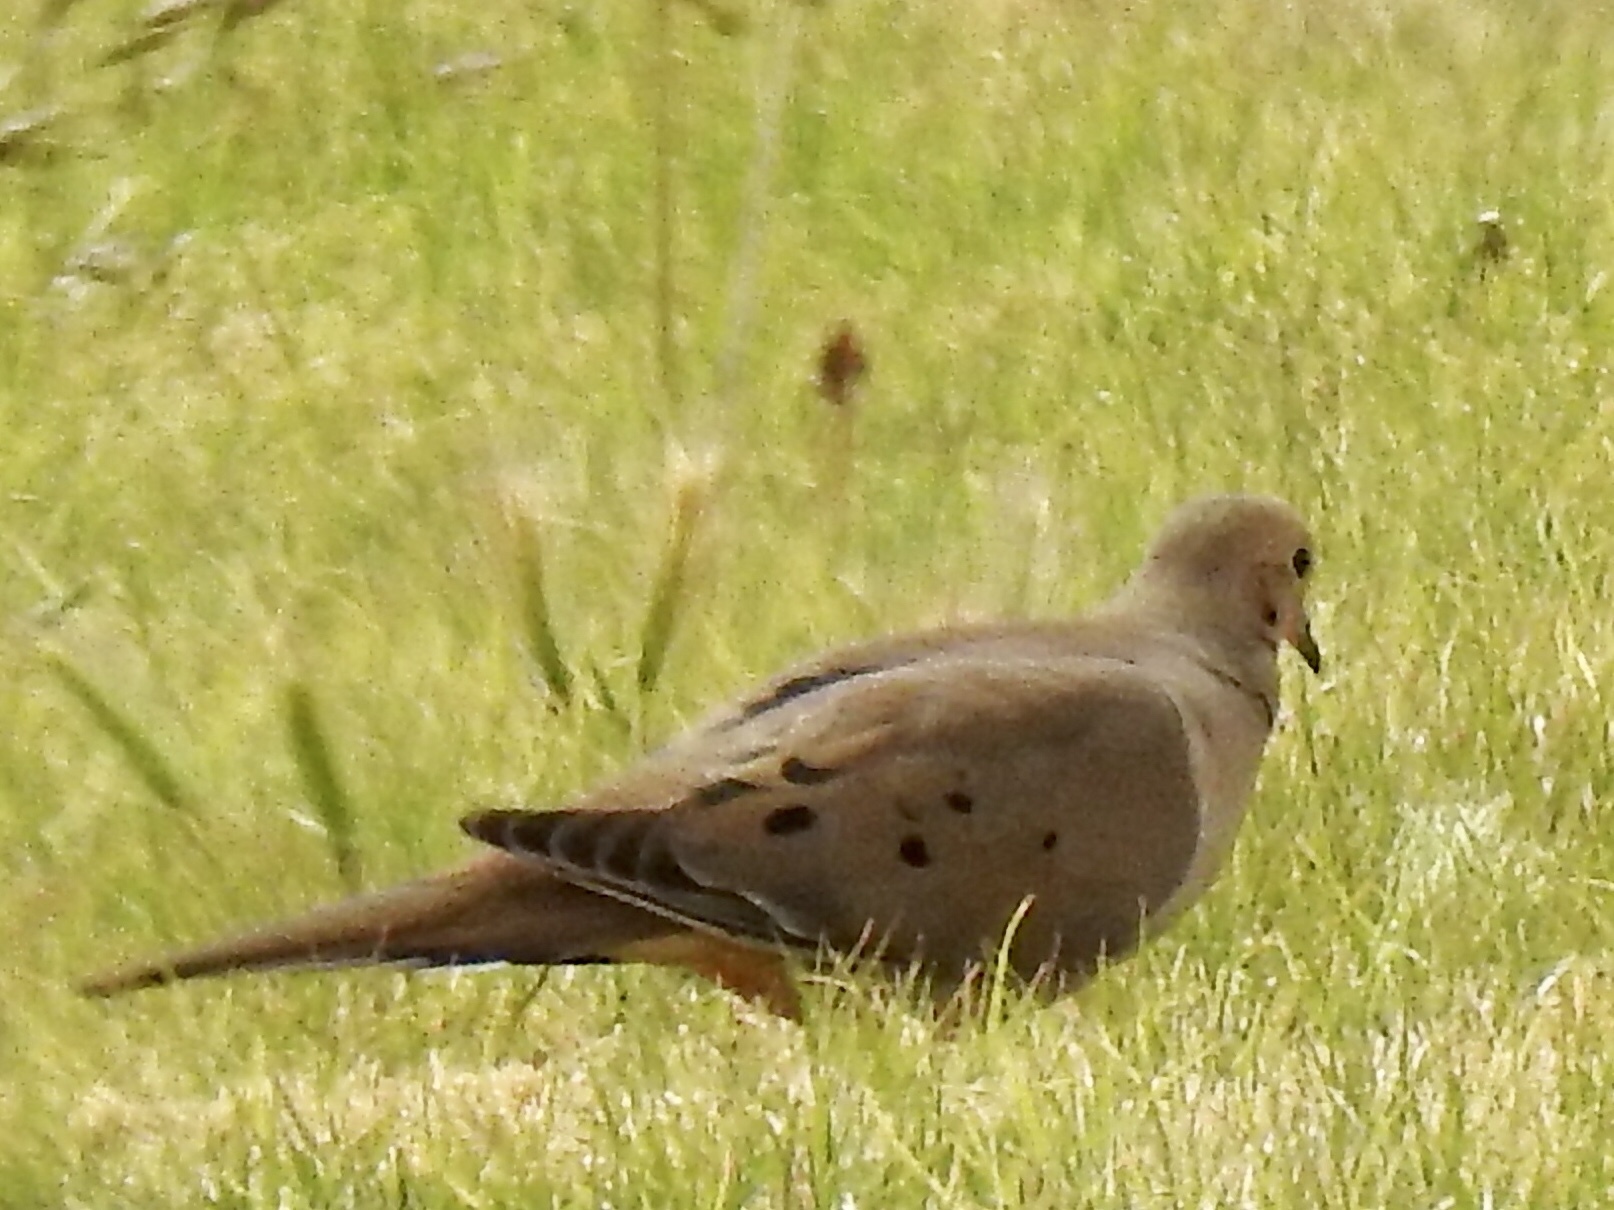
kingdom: Animalia
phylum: Chordata
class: Aves
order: Columbiformes
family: Columbidae
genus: Zenaida
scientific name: Zenaida macroura
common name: Mourning dove
